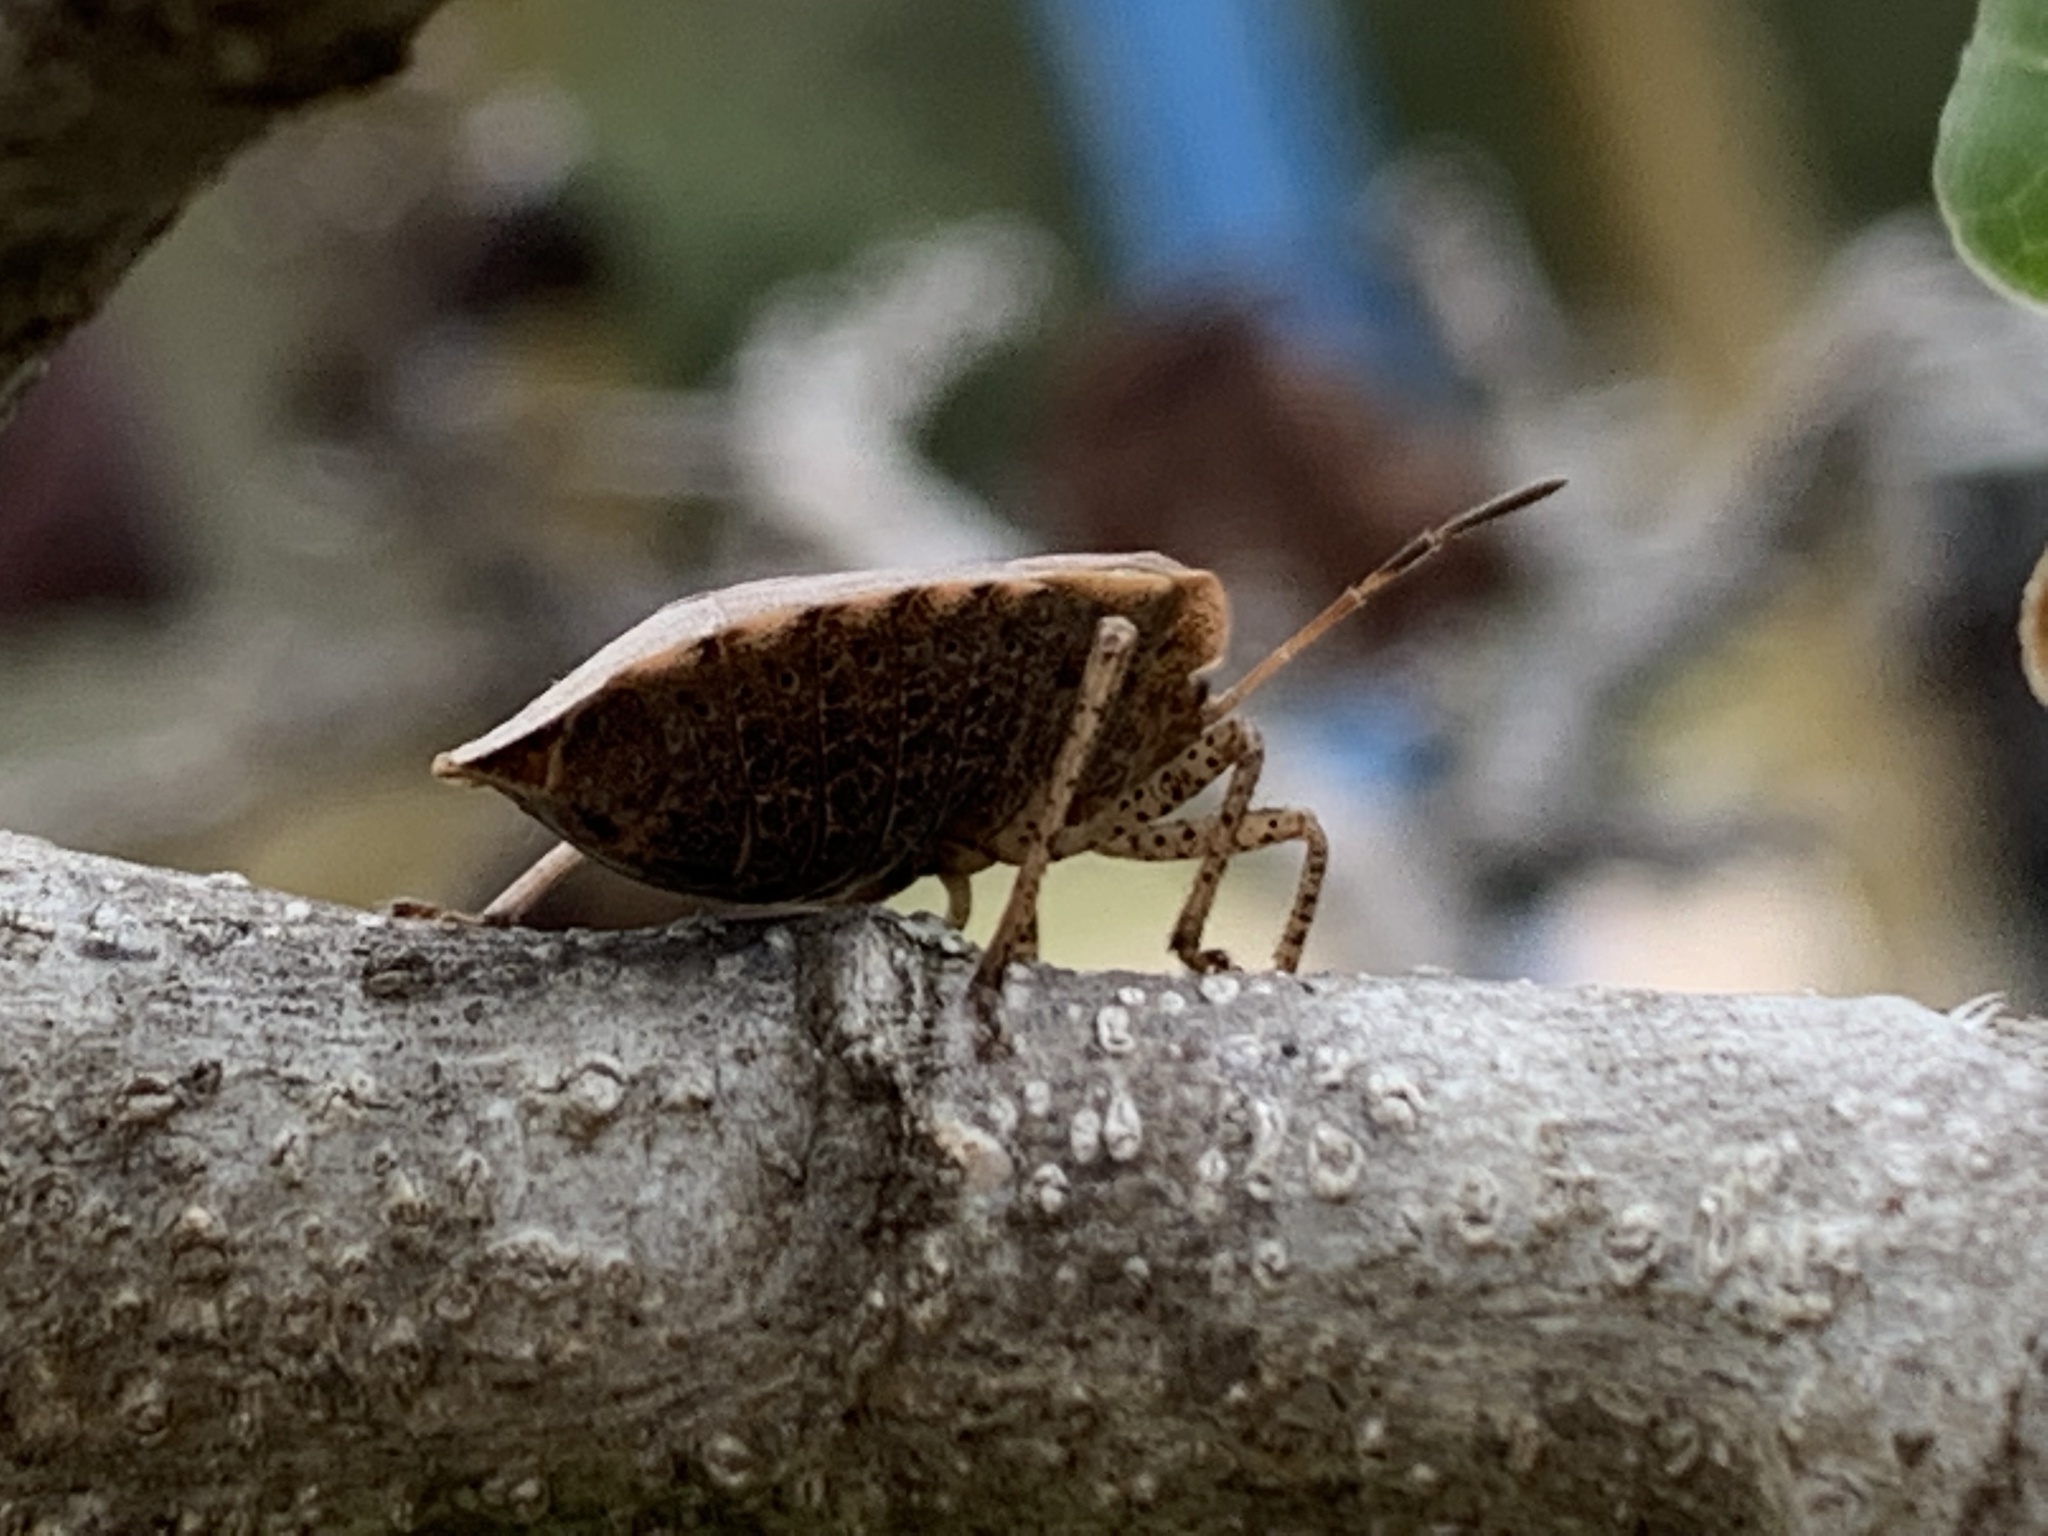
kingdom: Animalia
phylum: Arthropoda
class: Insecta
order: Hemiptera
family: Pentatomidae
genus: Menecles
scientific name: Menecles insertus
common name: Elf shoe stink bug
